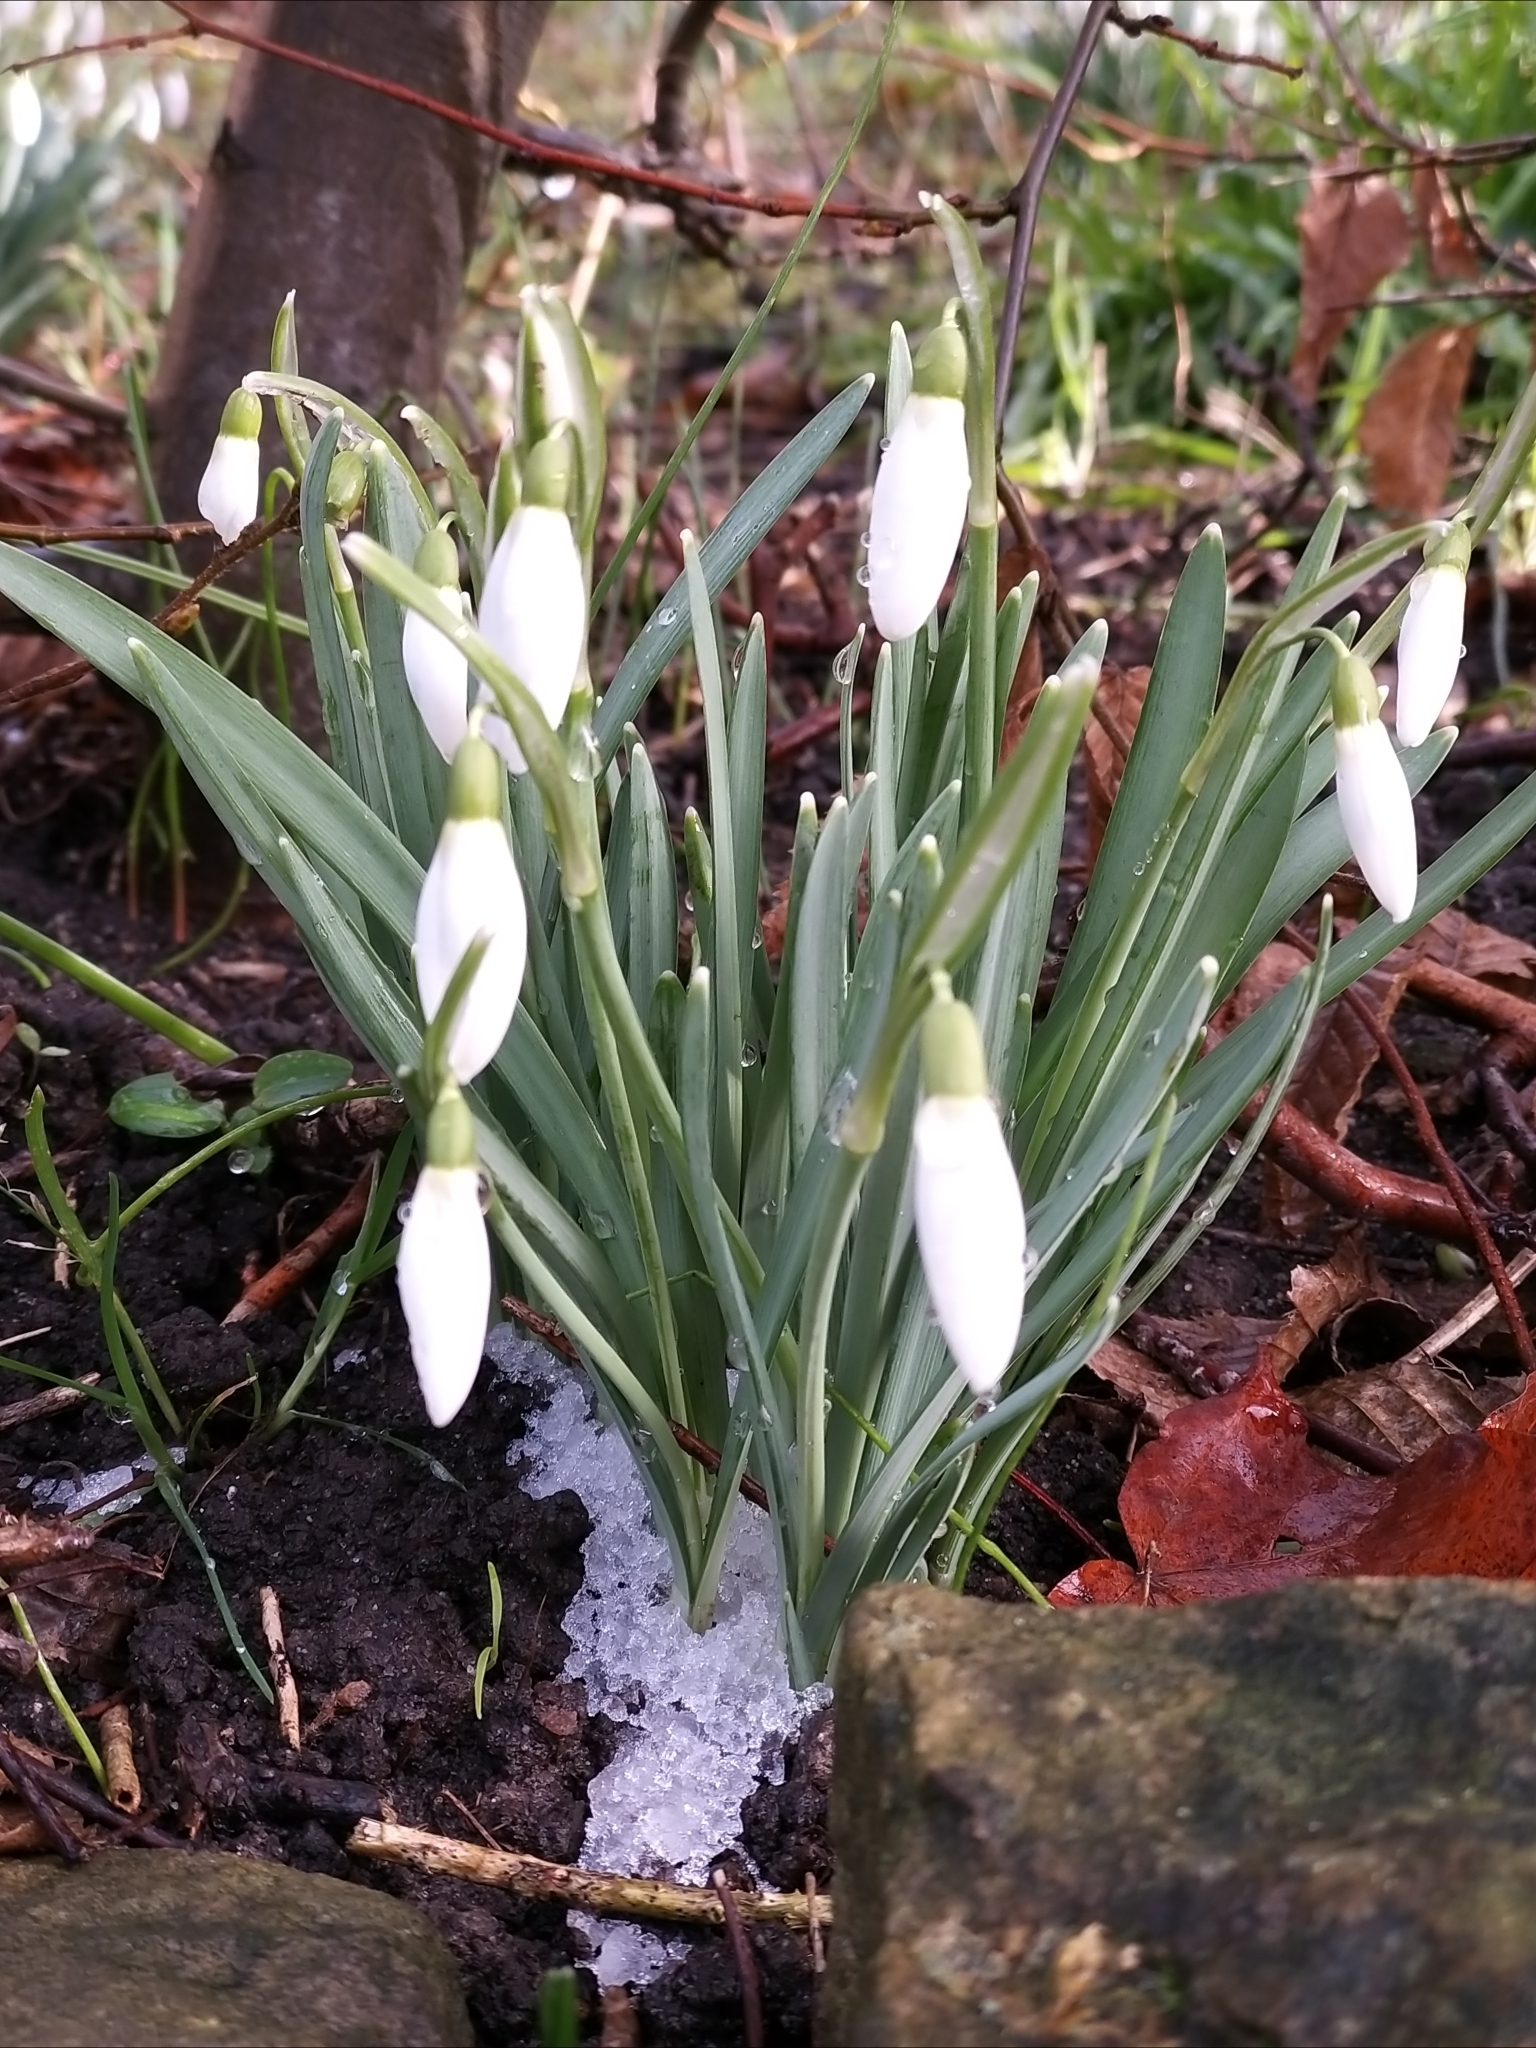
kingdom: Plantae
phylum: Tracheophyta
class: Liliopsida
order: Asparagales
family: Amaryllidaceae
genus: Galanthus
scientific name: Galanthus nivalis
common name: Snowdrop
